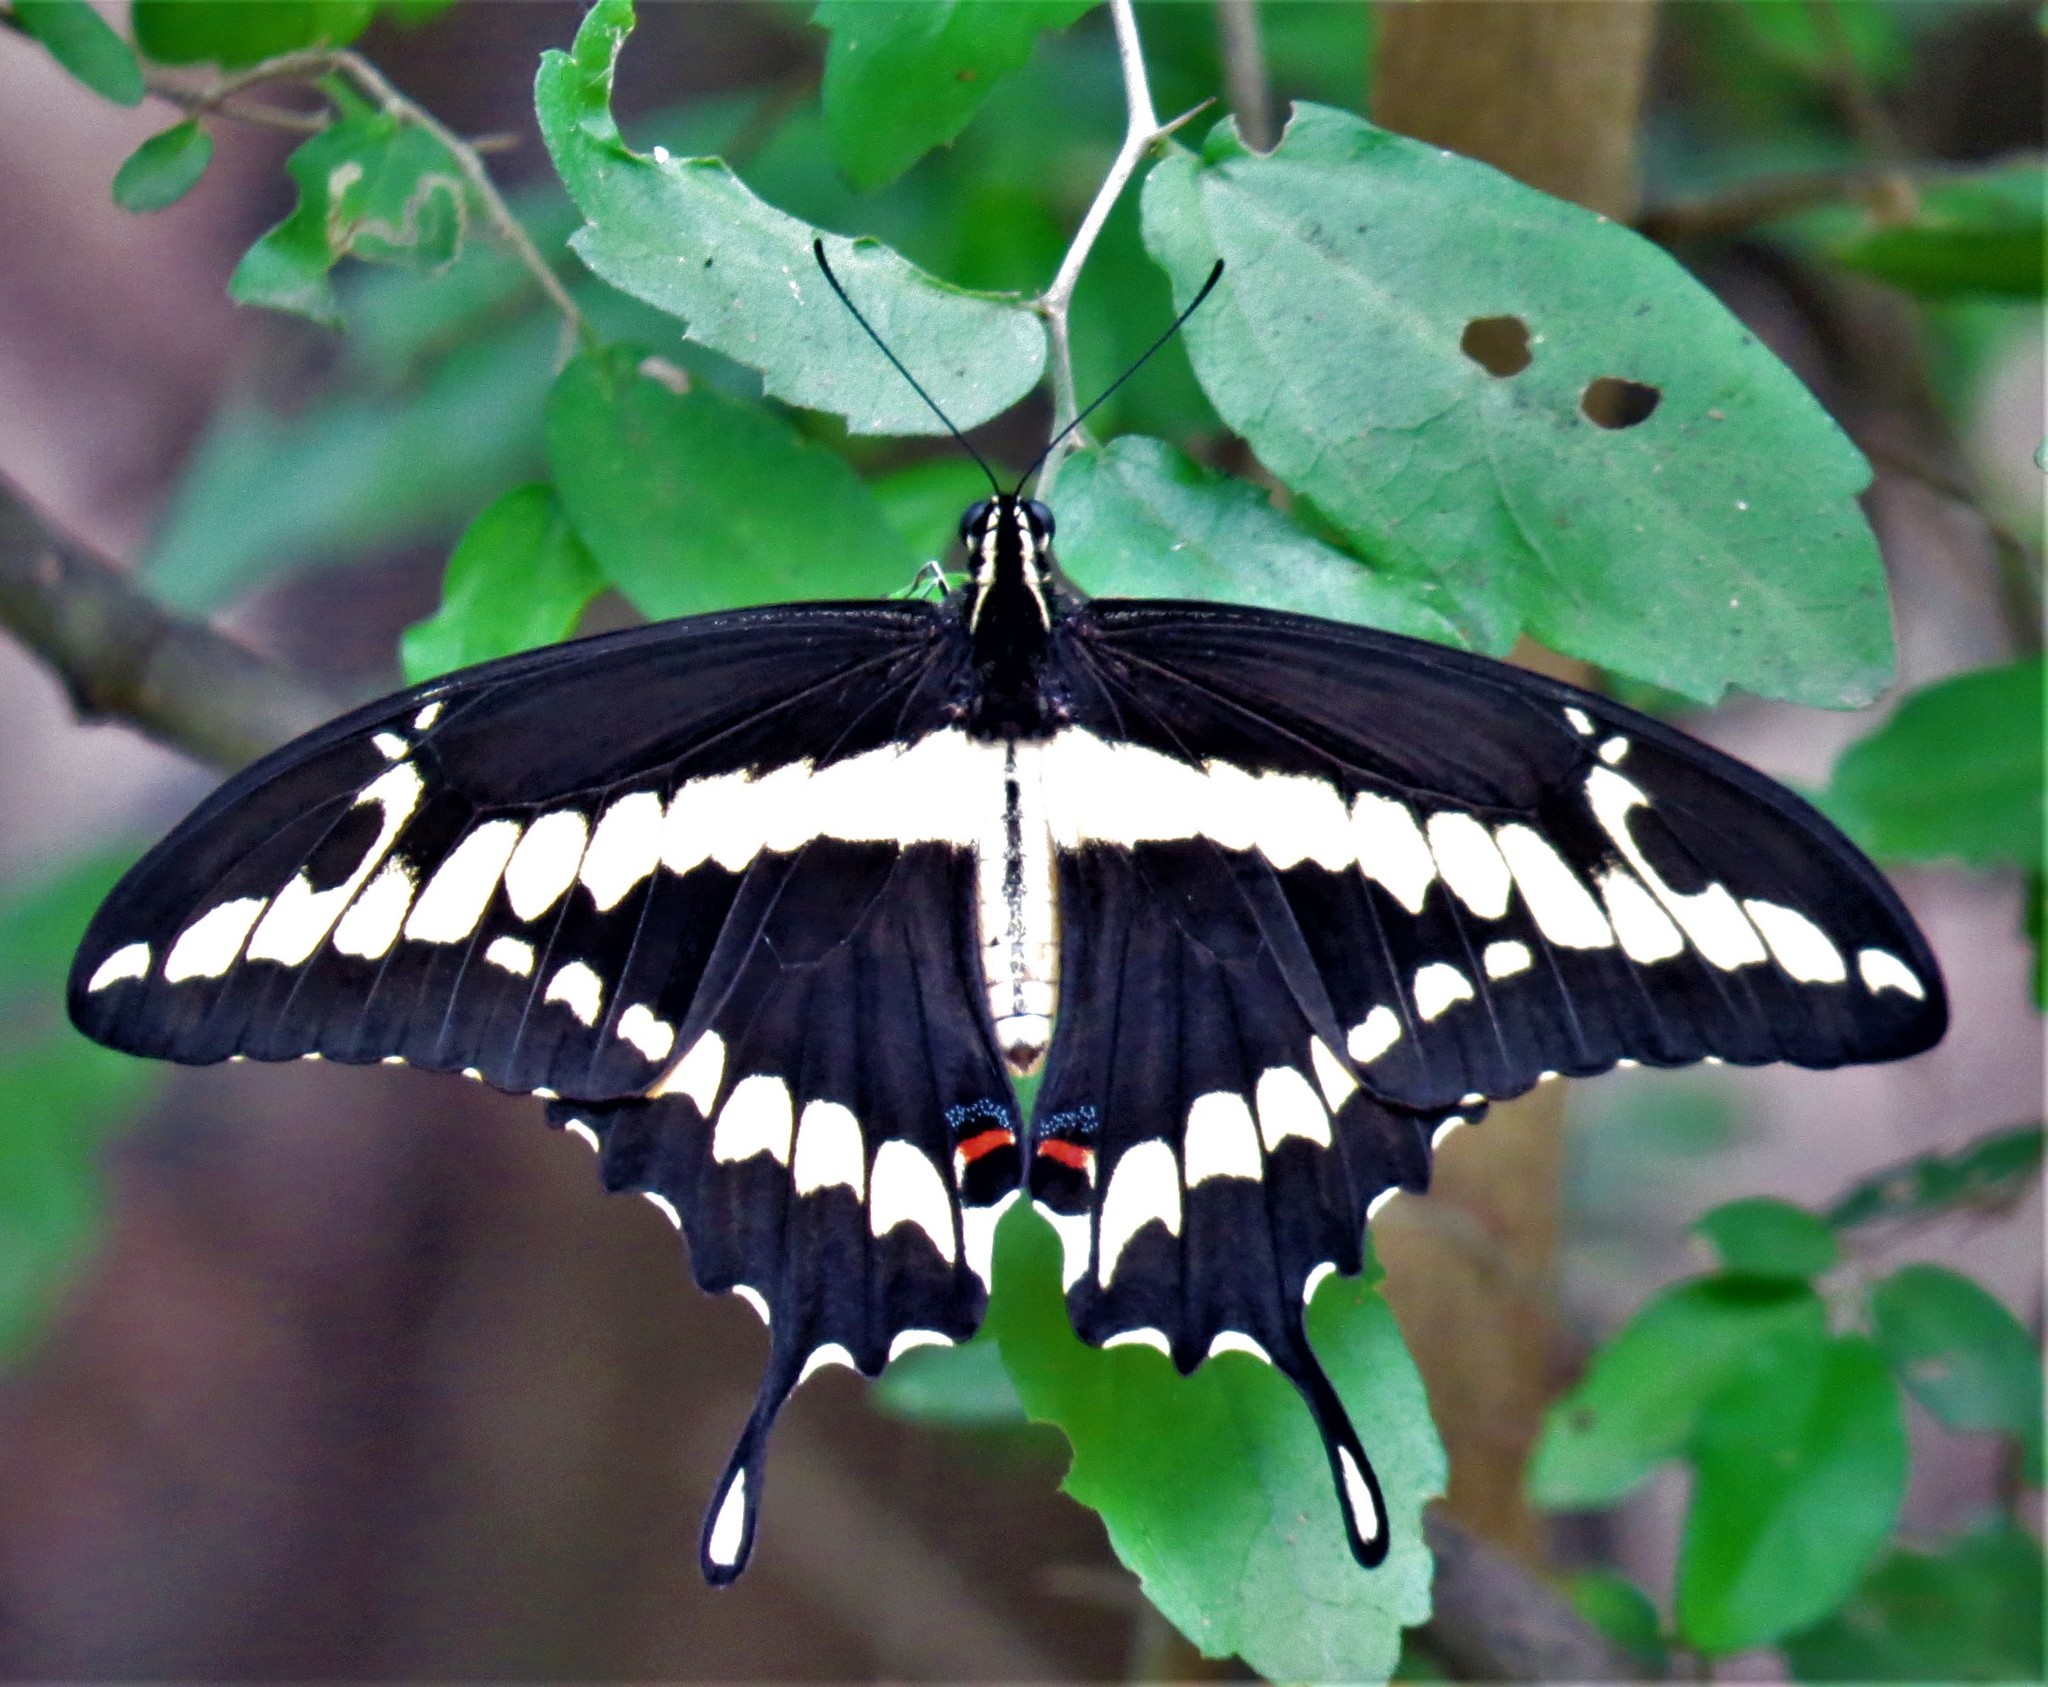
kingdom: Animalia
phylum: Arthropoda
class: Insecta
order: Lepidoptera
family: Papilionidae
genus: Papilio
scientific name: Papilio rumiko
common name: Western giant swallowtail
